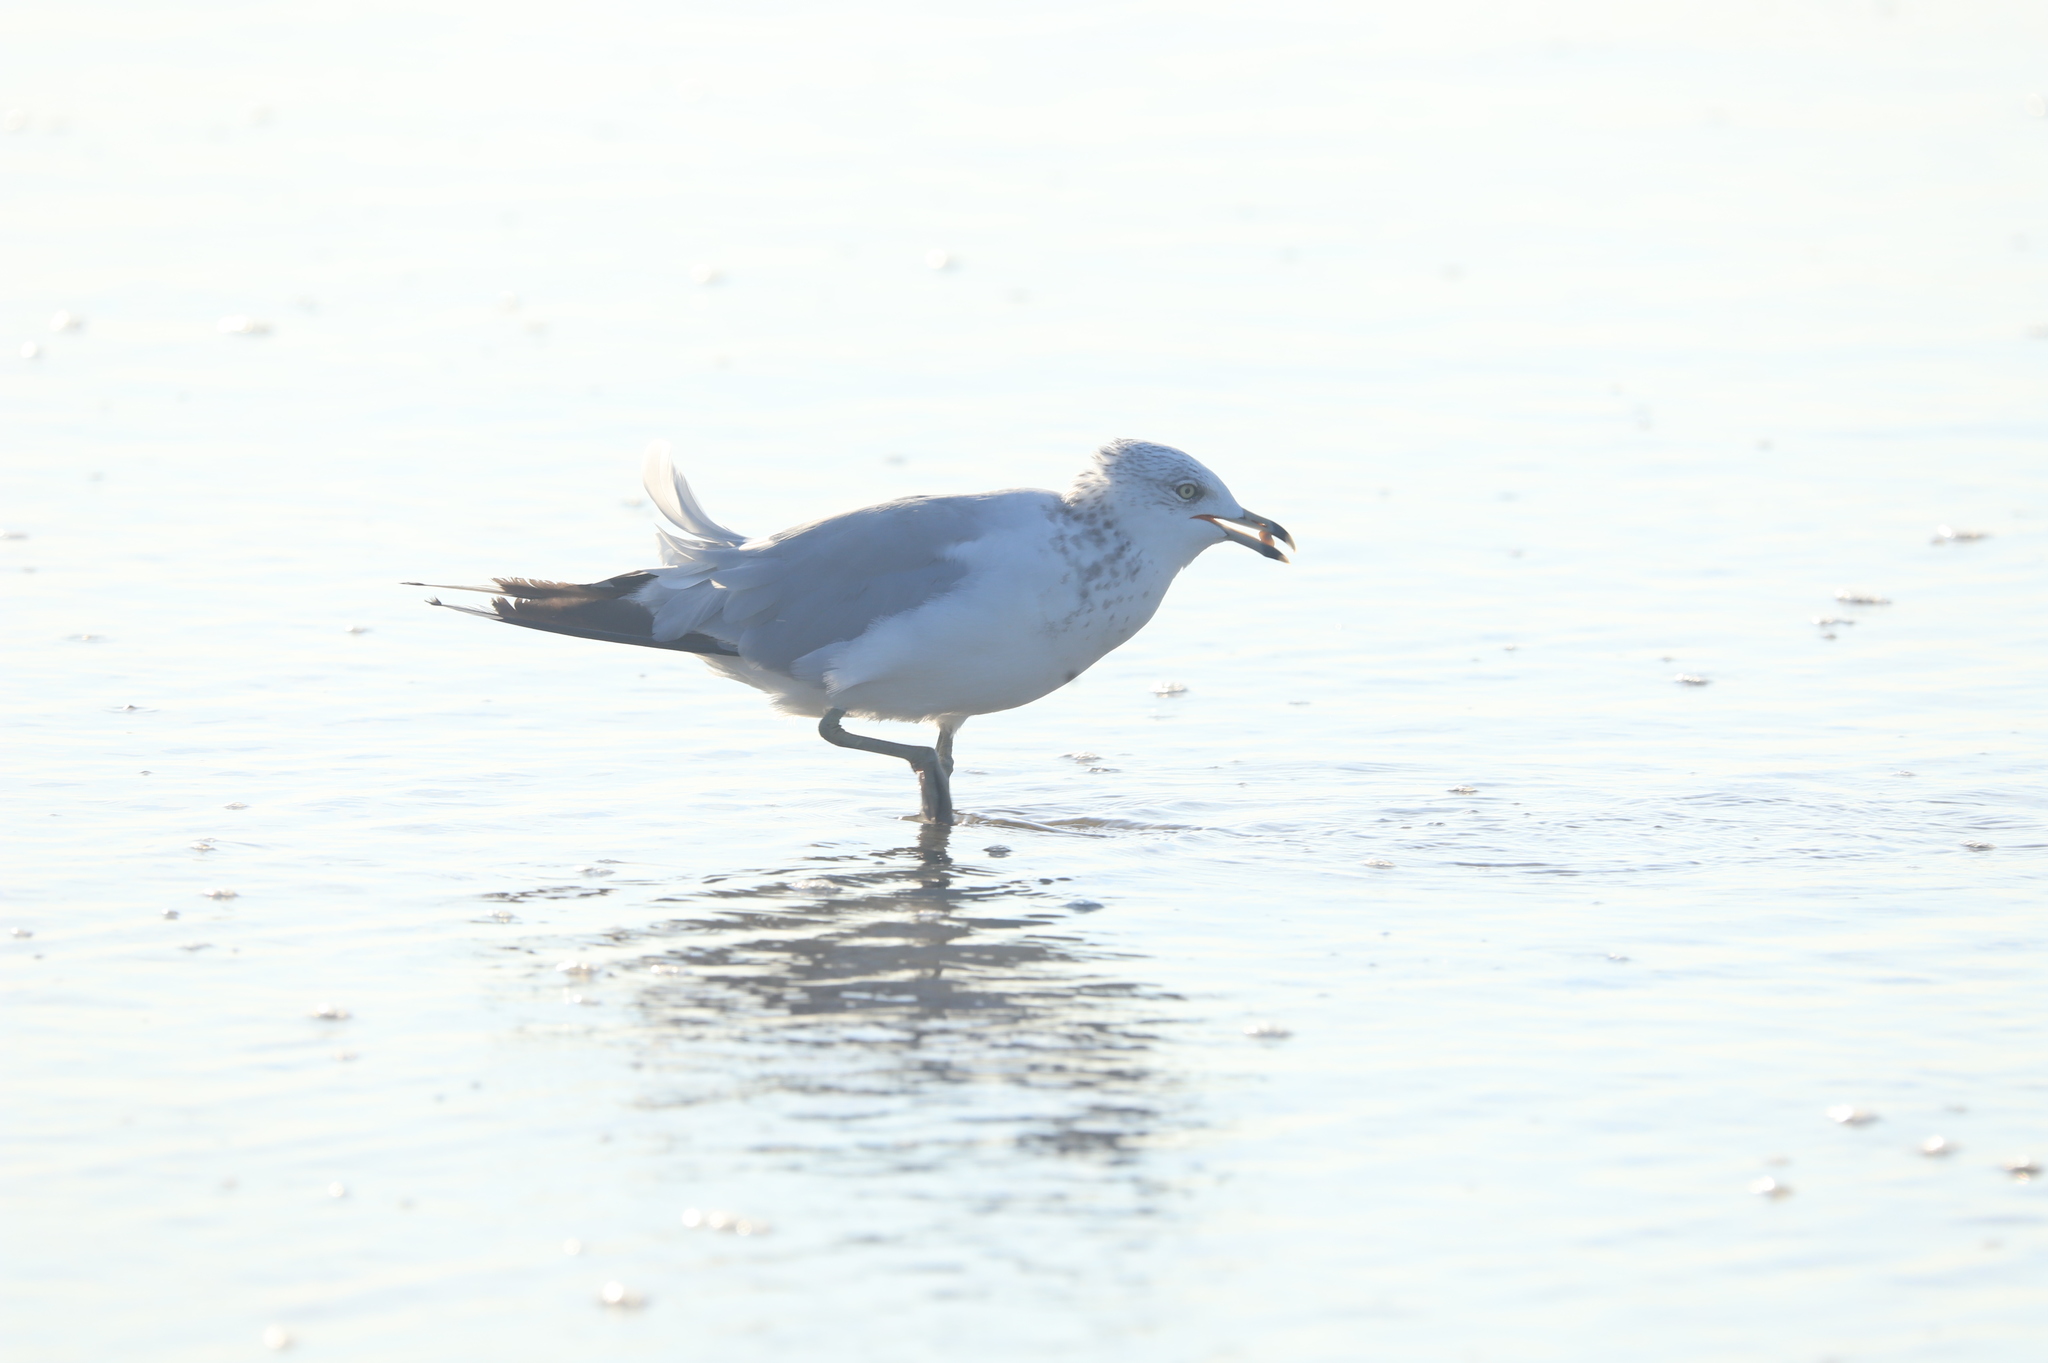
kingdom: Animalia
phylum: Chordata
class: Aves
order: Charadriiformes
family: Laridae
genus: Larus
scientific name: Larus delawarensis
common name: Ring-billed gull
